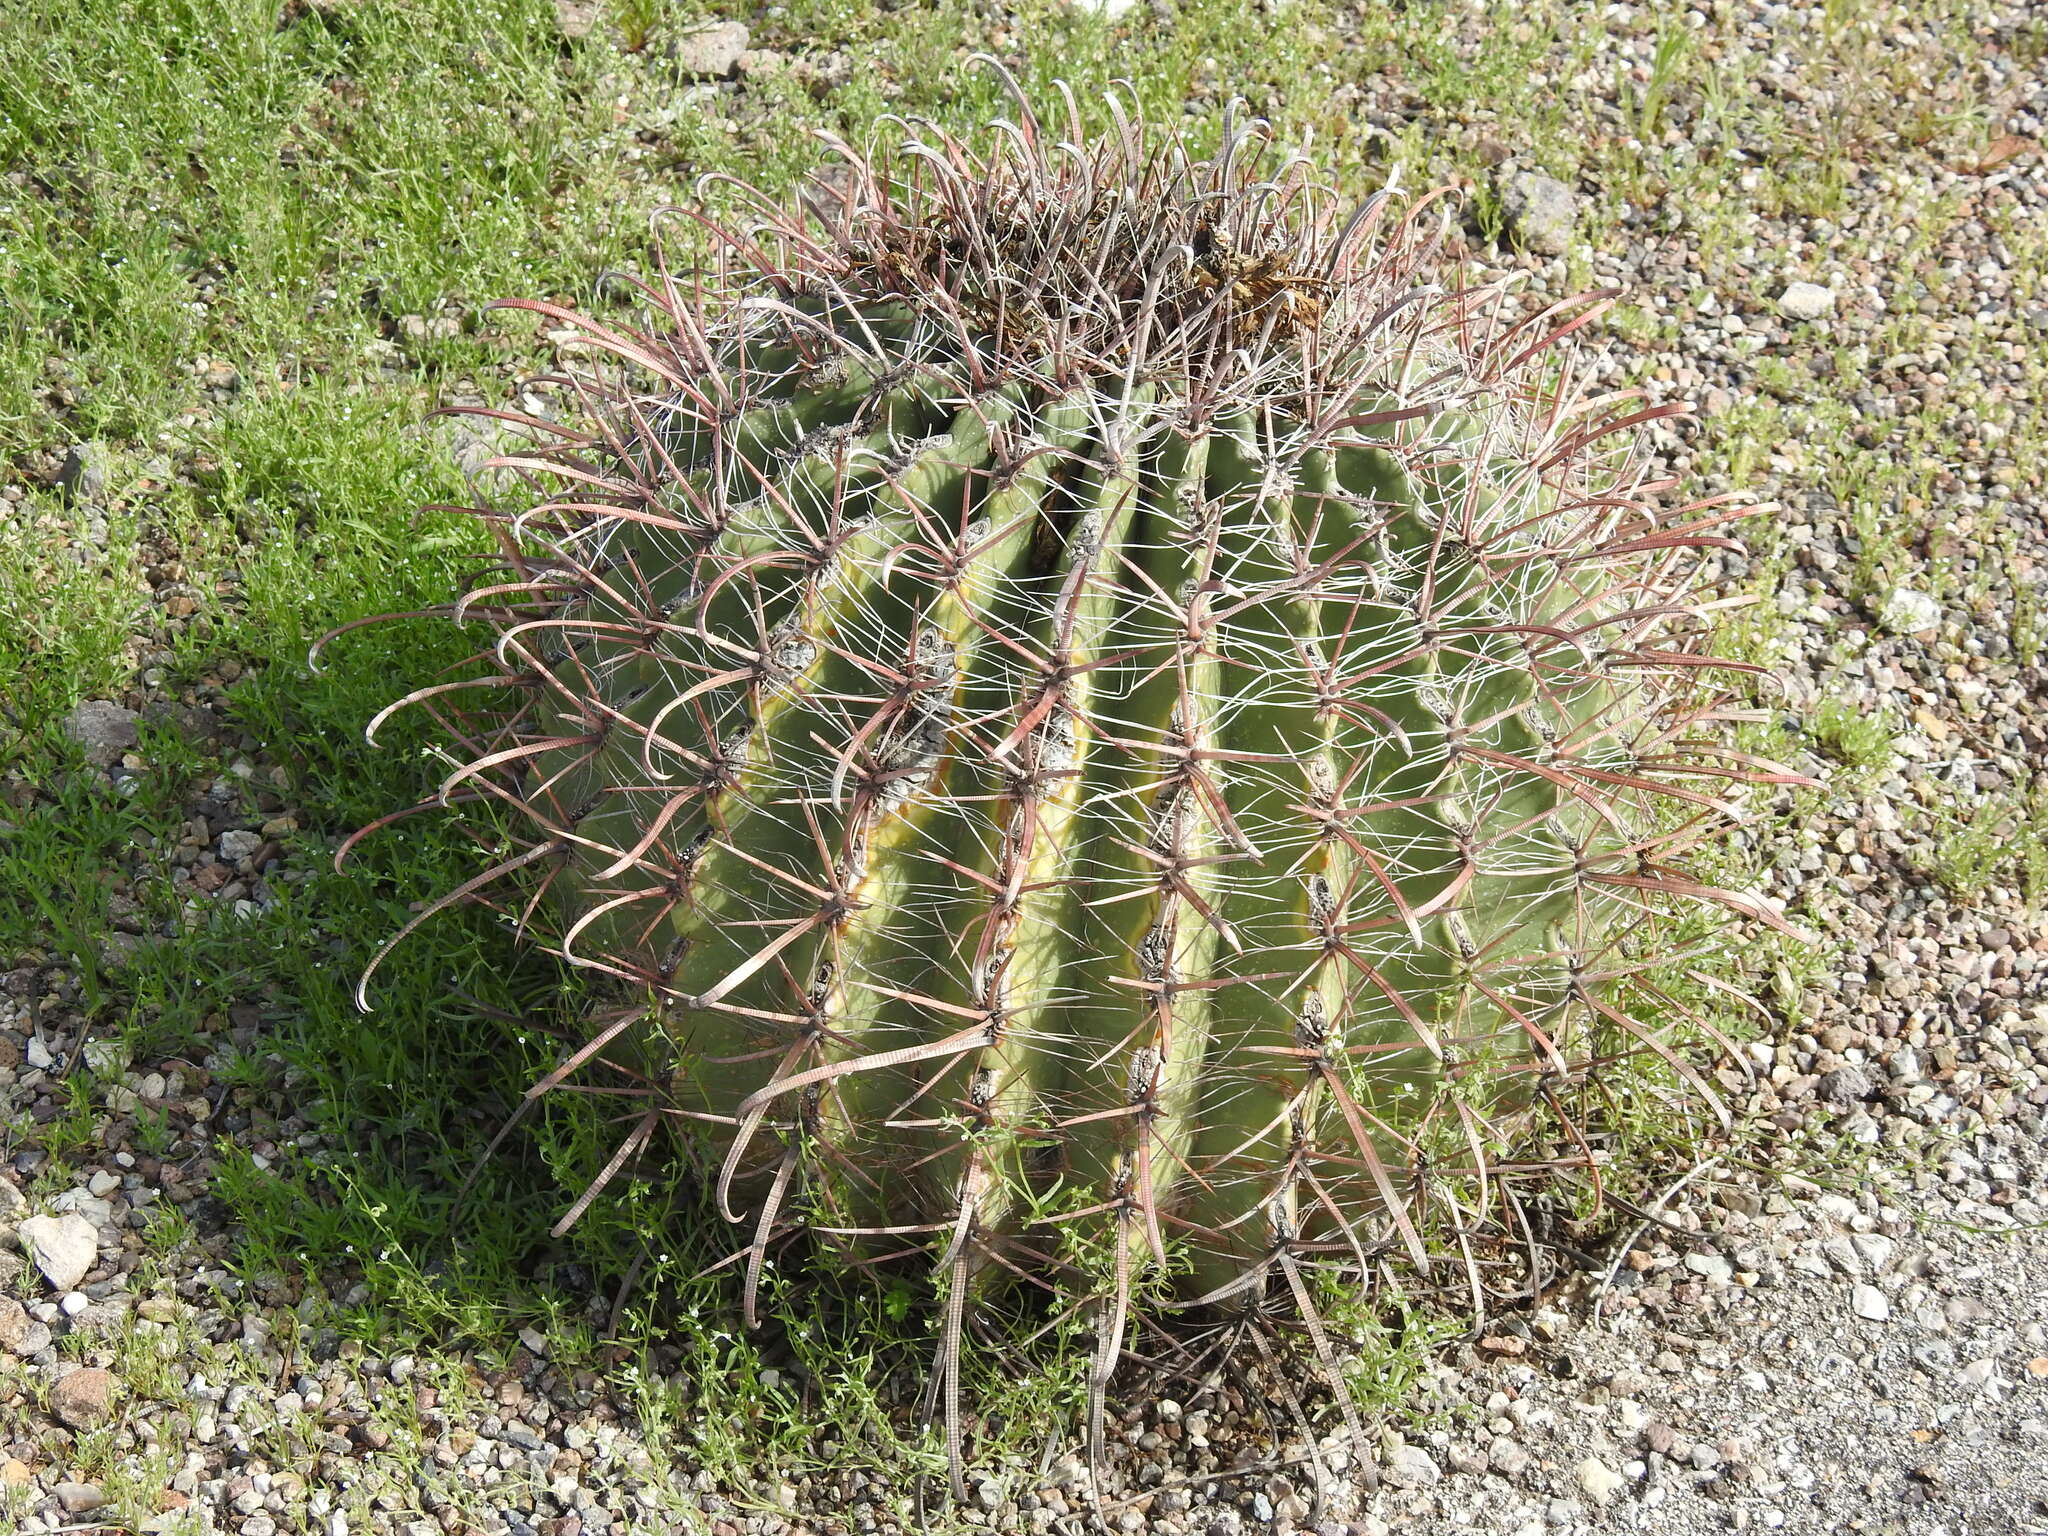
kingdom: Plantae
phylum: Tracheophyta
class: Magnoliopsida
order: Caryophyllales
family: Cactaceae
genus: Ferocactus
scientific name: Ferocactus wislizeni
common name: Candy barrel cactus
